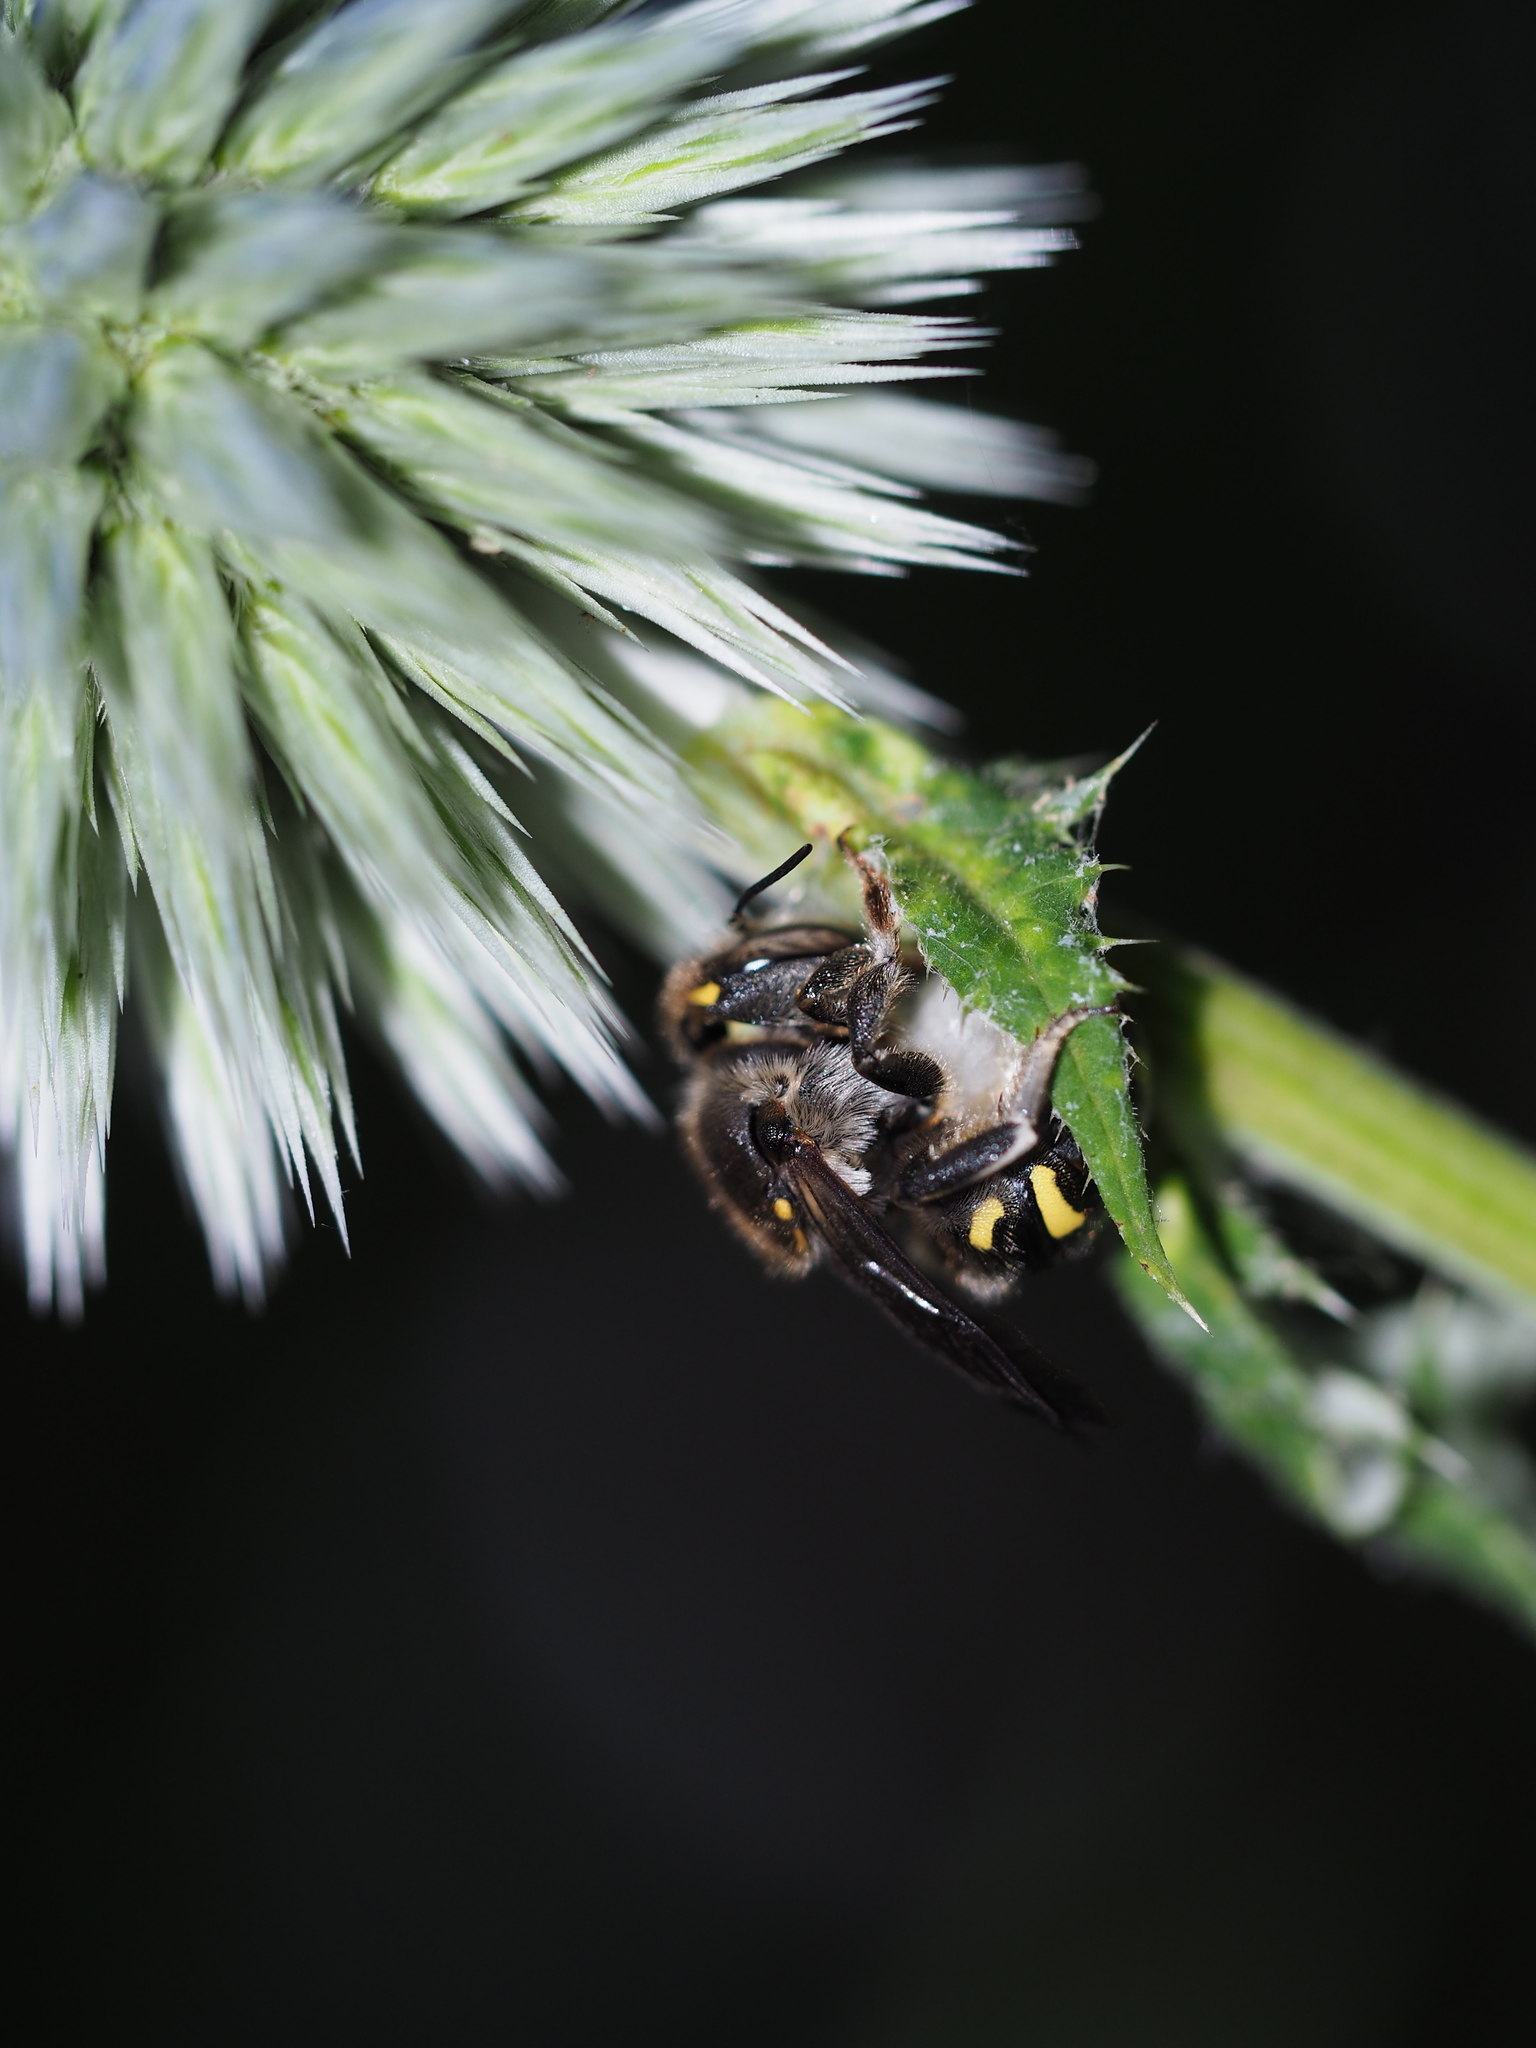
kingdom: Animalia
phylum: Arthropoda
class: Insecta
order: Hymenoptera
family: Megachilidae
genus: Anthidium
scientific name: Anthidium septemspinosum
